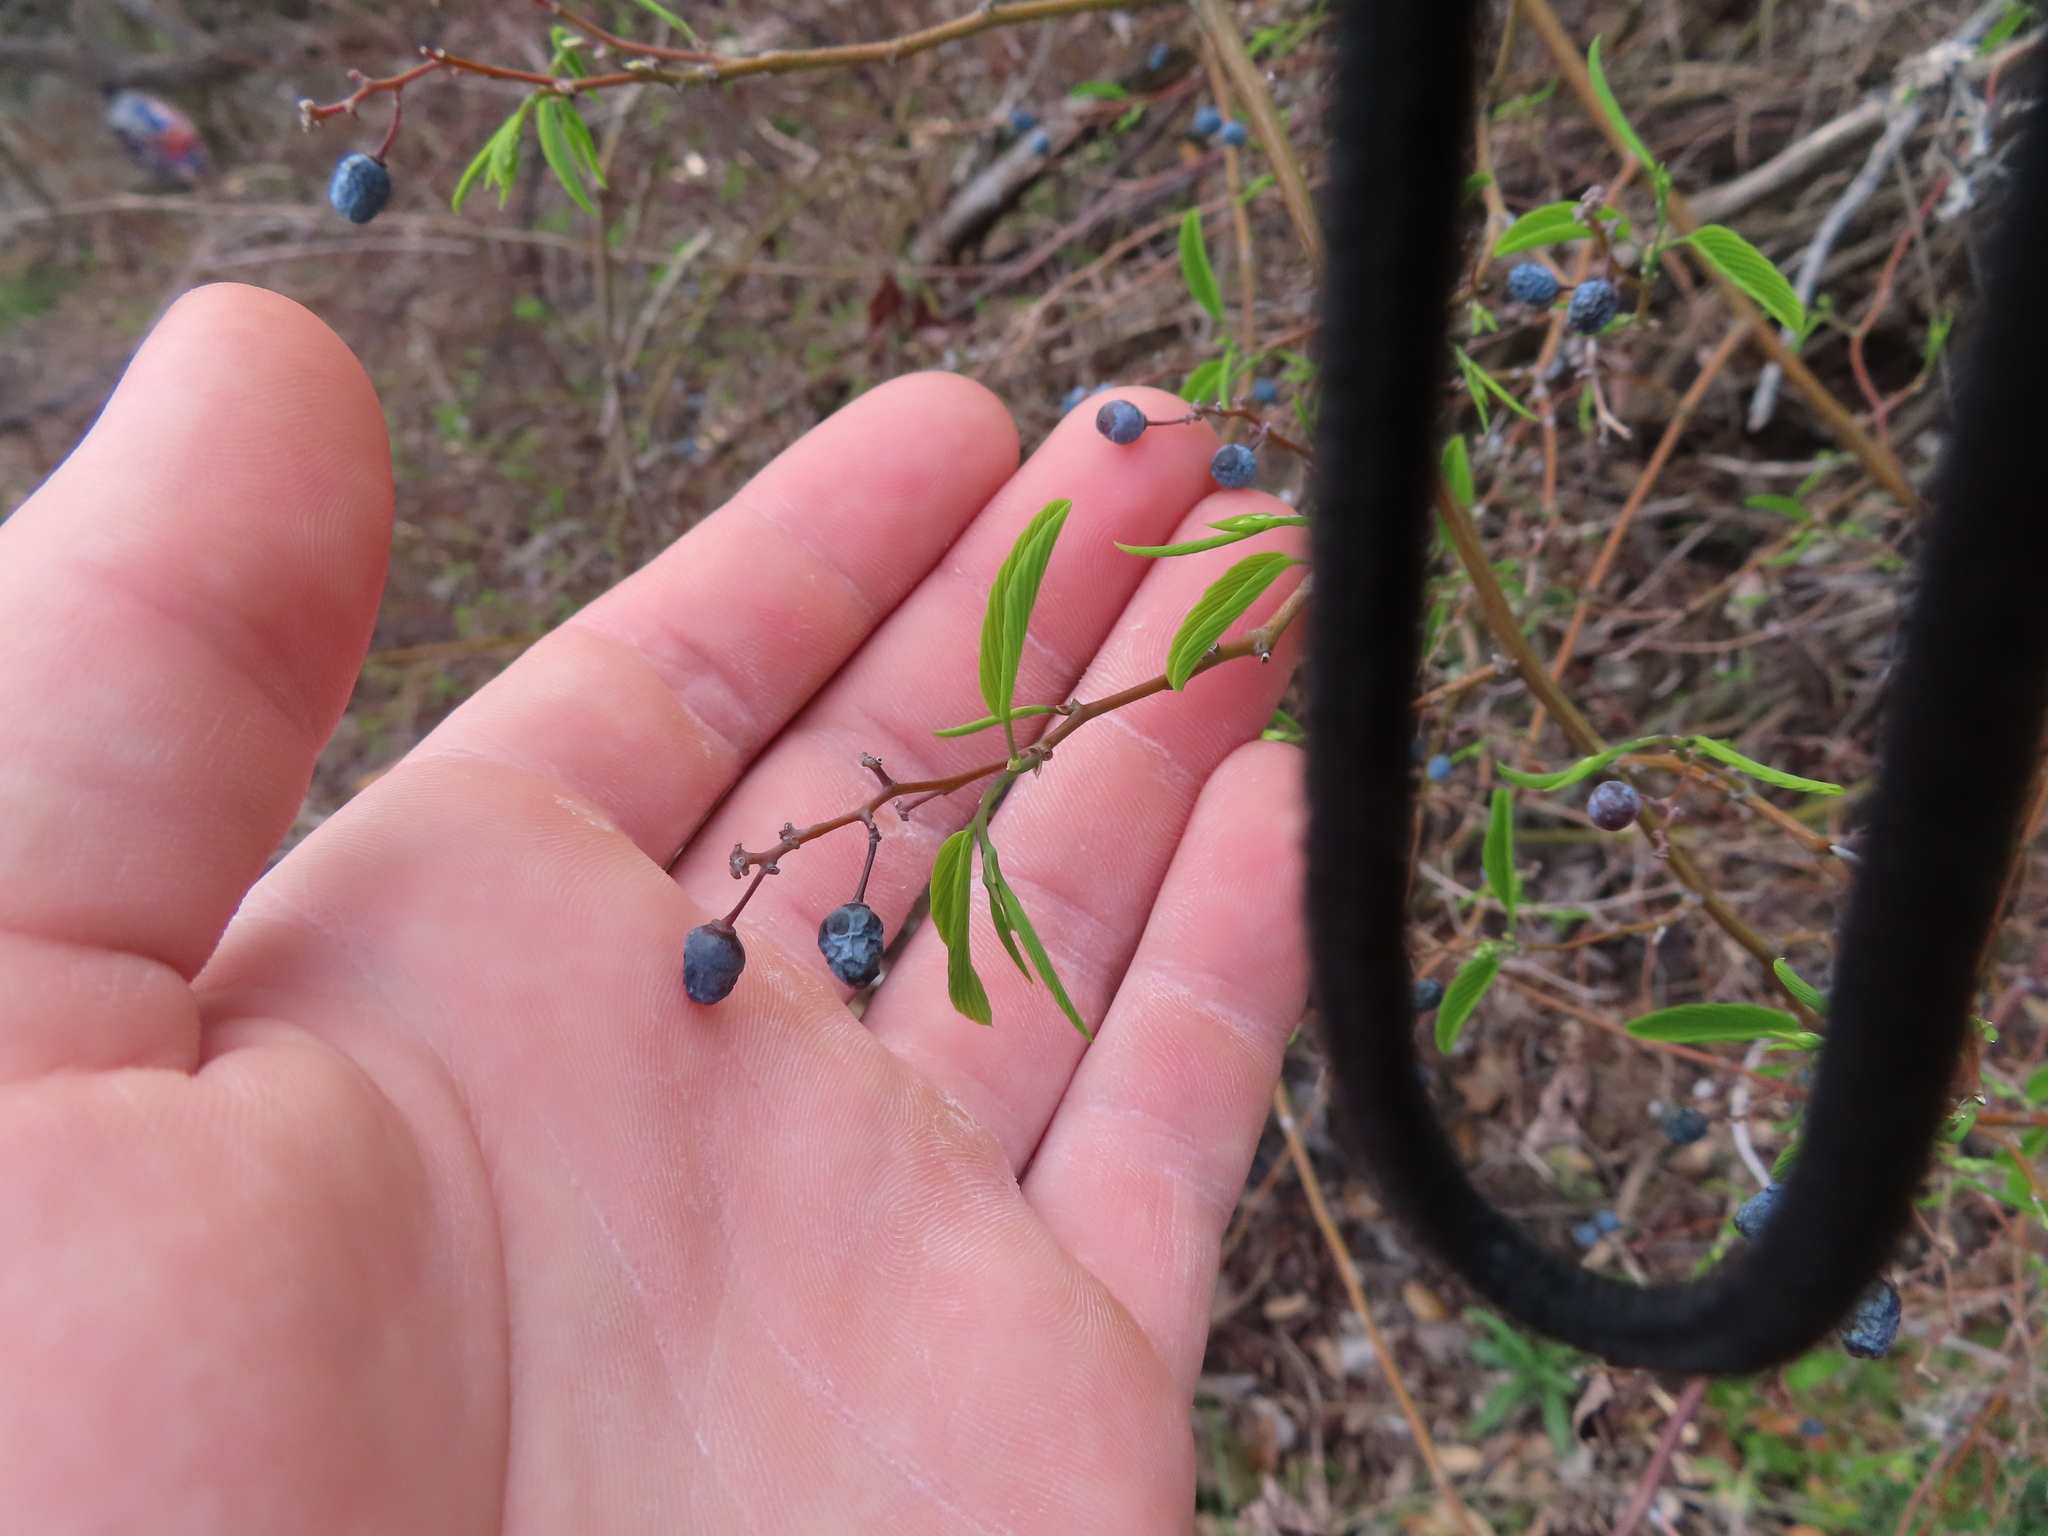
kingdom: Plantae
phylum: Tracheophyta
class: Magnoliopsida
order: Rosales
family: Rhamnaceae
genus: Berchemia
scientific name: Berchemia scandens
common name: Supplejack
